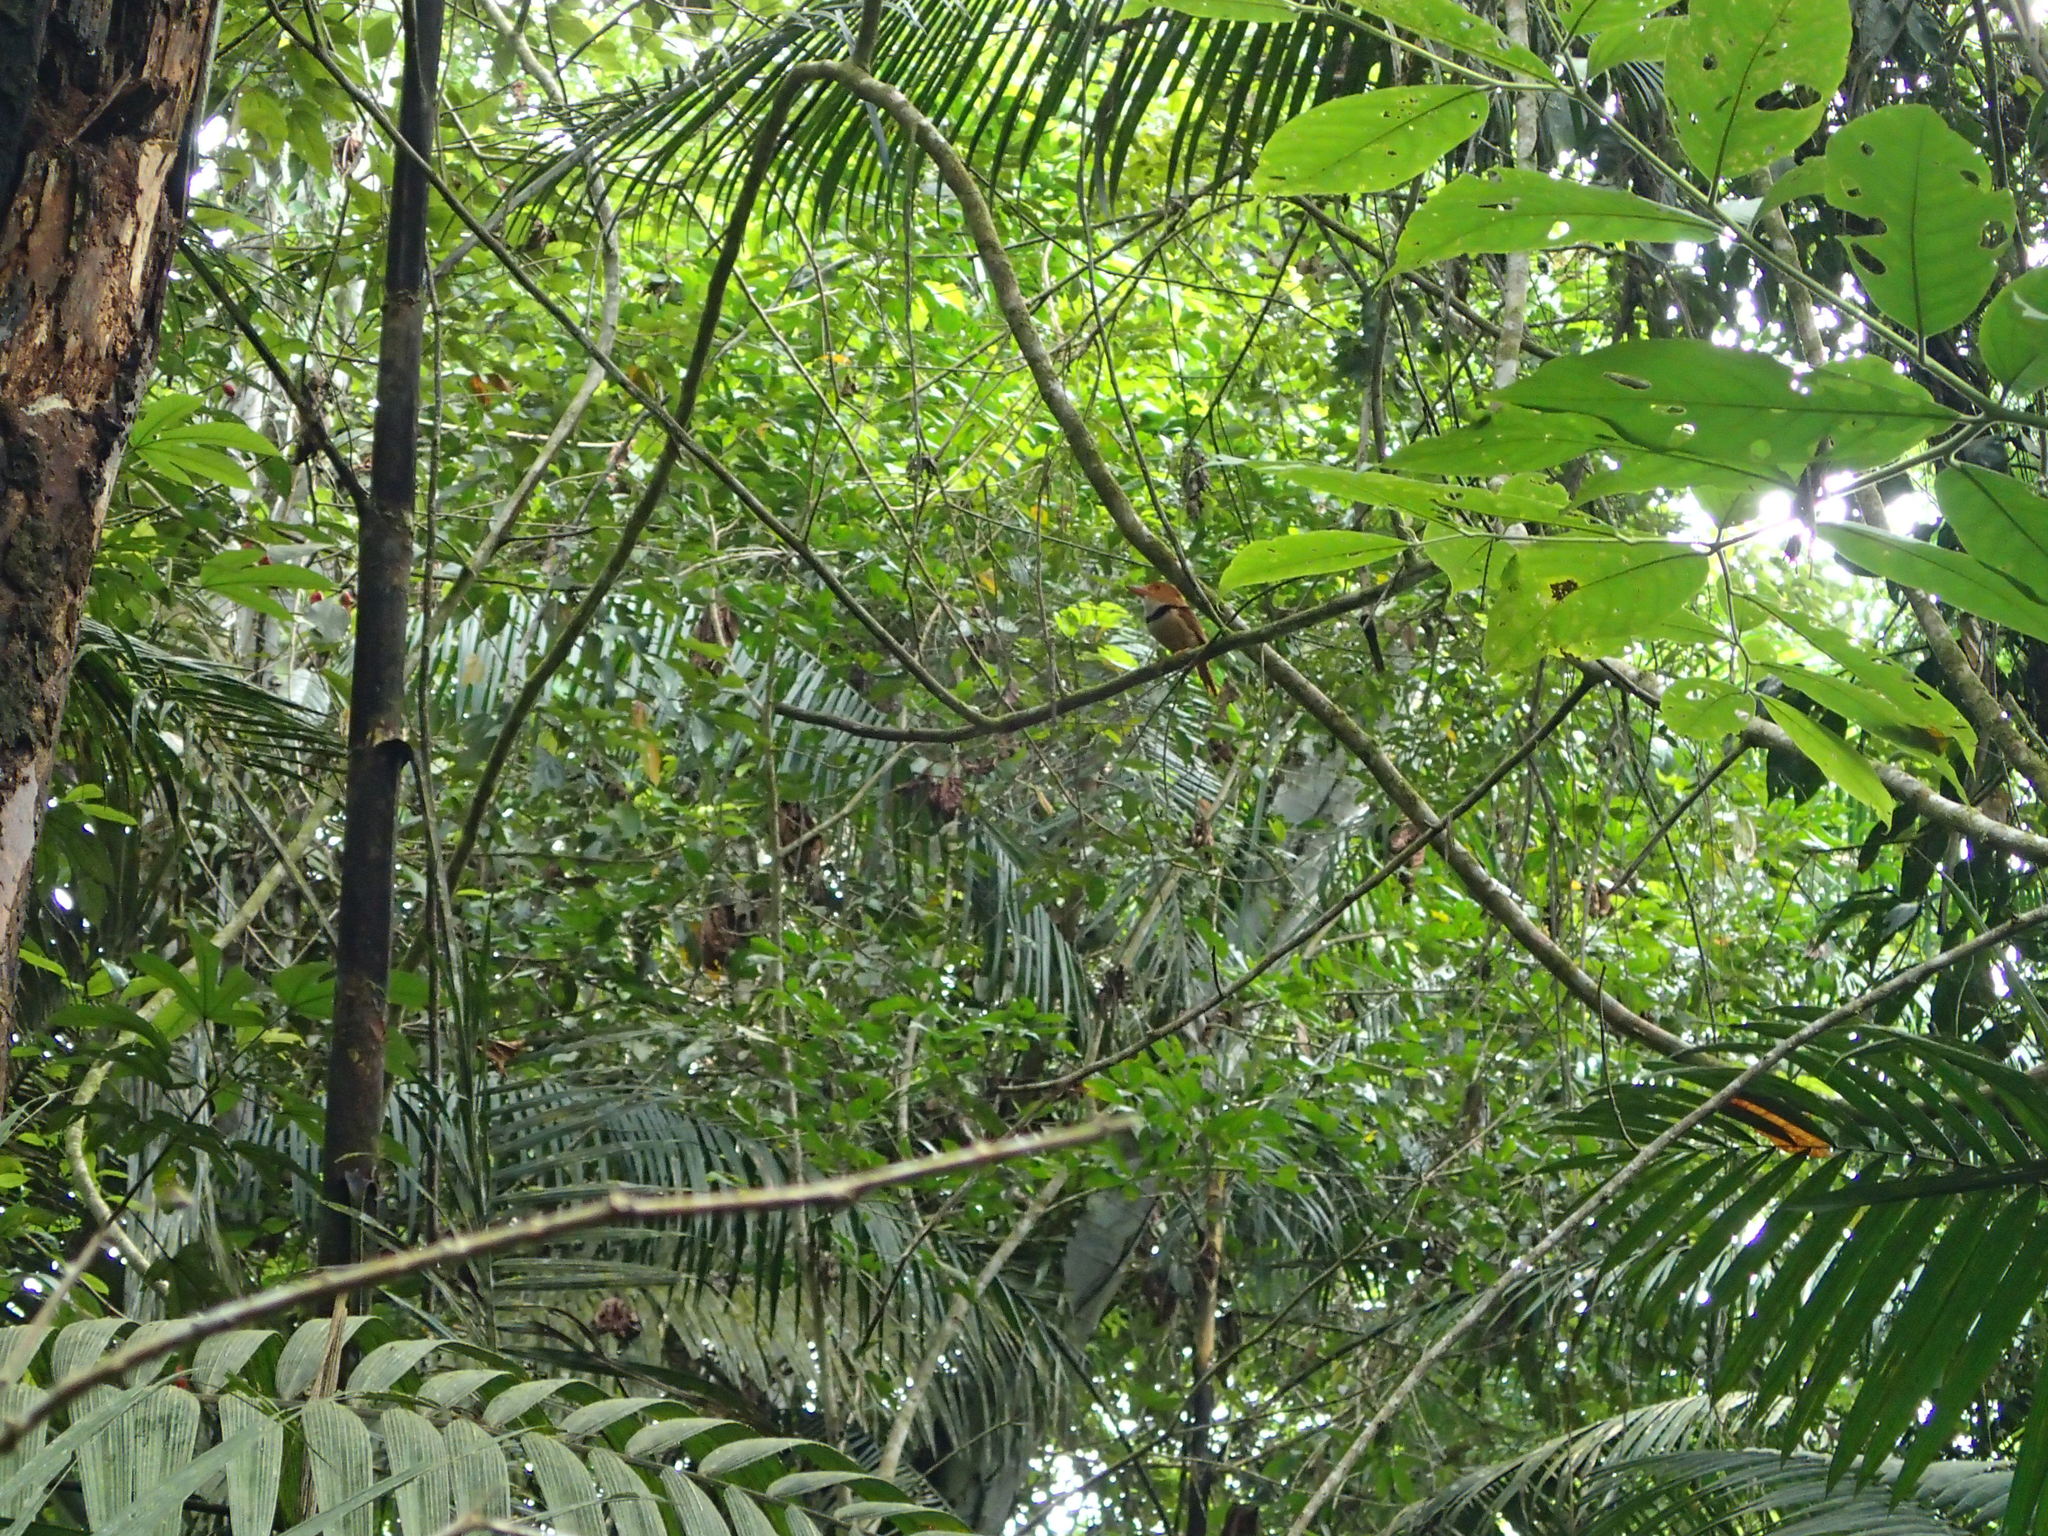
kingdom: Animalia
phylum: Chordata
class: Aves
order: Piciformes
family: Bucconidae
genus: Bucco
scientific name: Bucco capensis
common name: Collared puffbird
